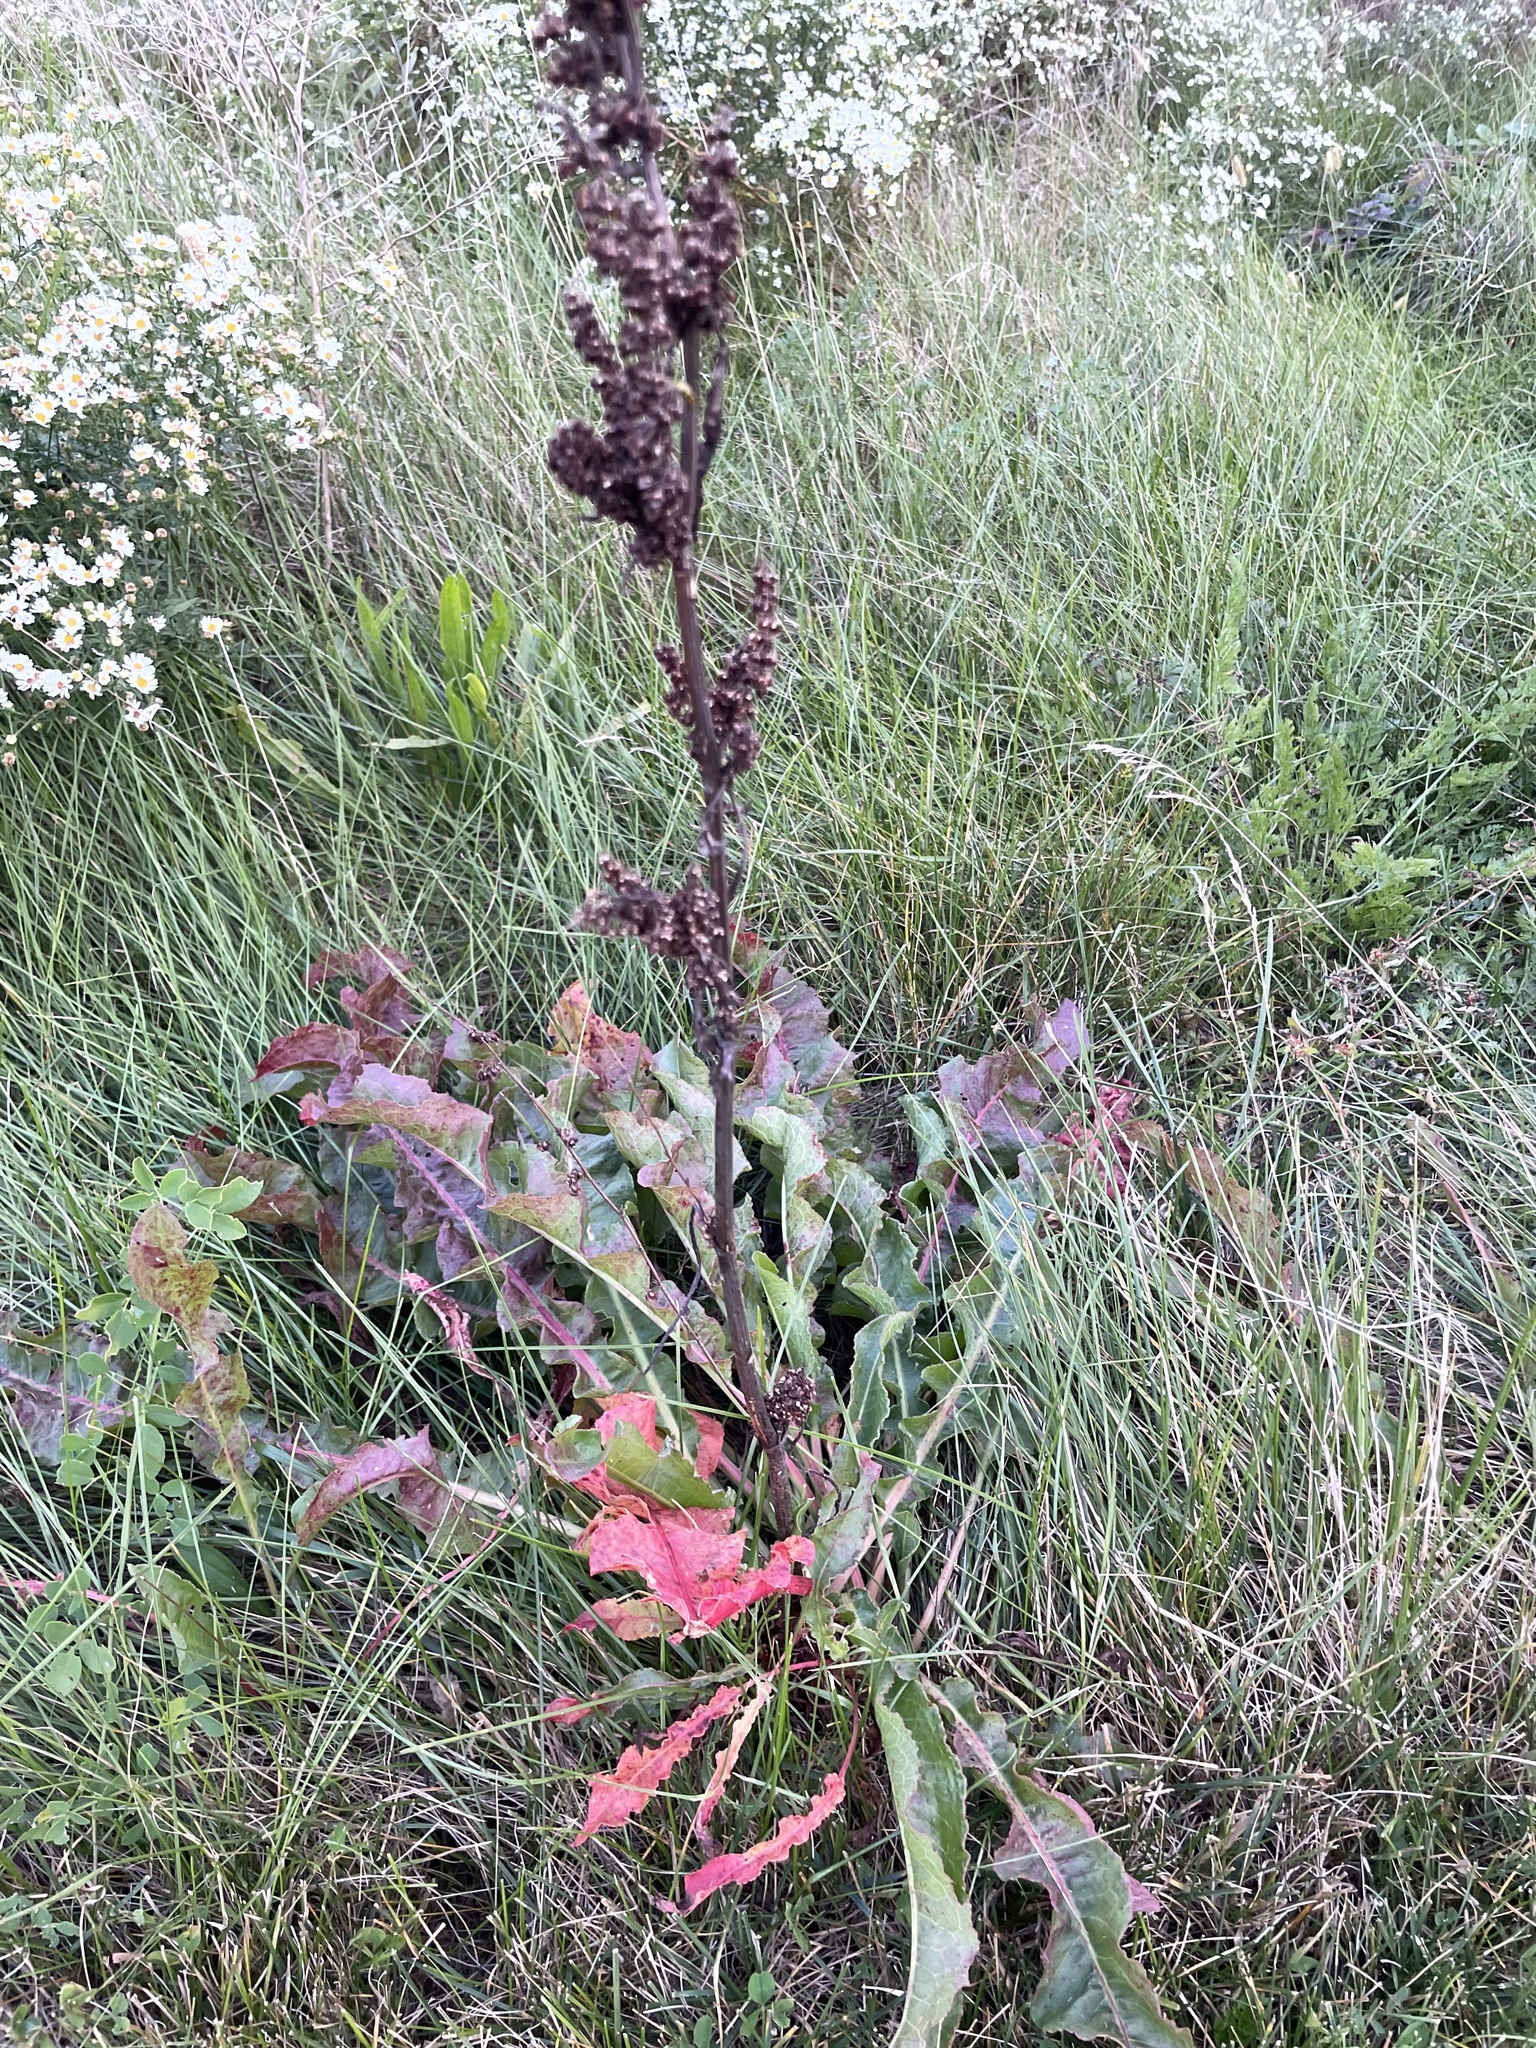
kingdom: Plantae
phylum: Tracheophyta
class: Magnoliopsida
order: Caryophyllales
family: Polygonaceae
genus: Rumex
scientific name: Rumex crispus
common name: Curled dock
